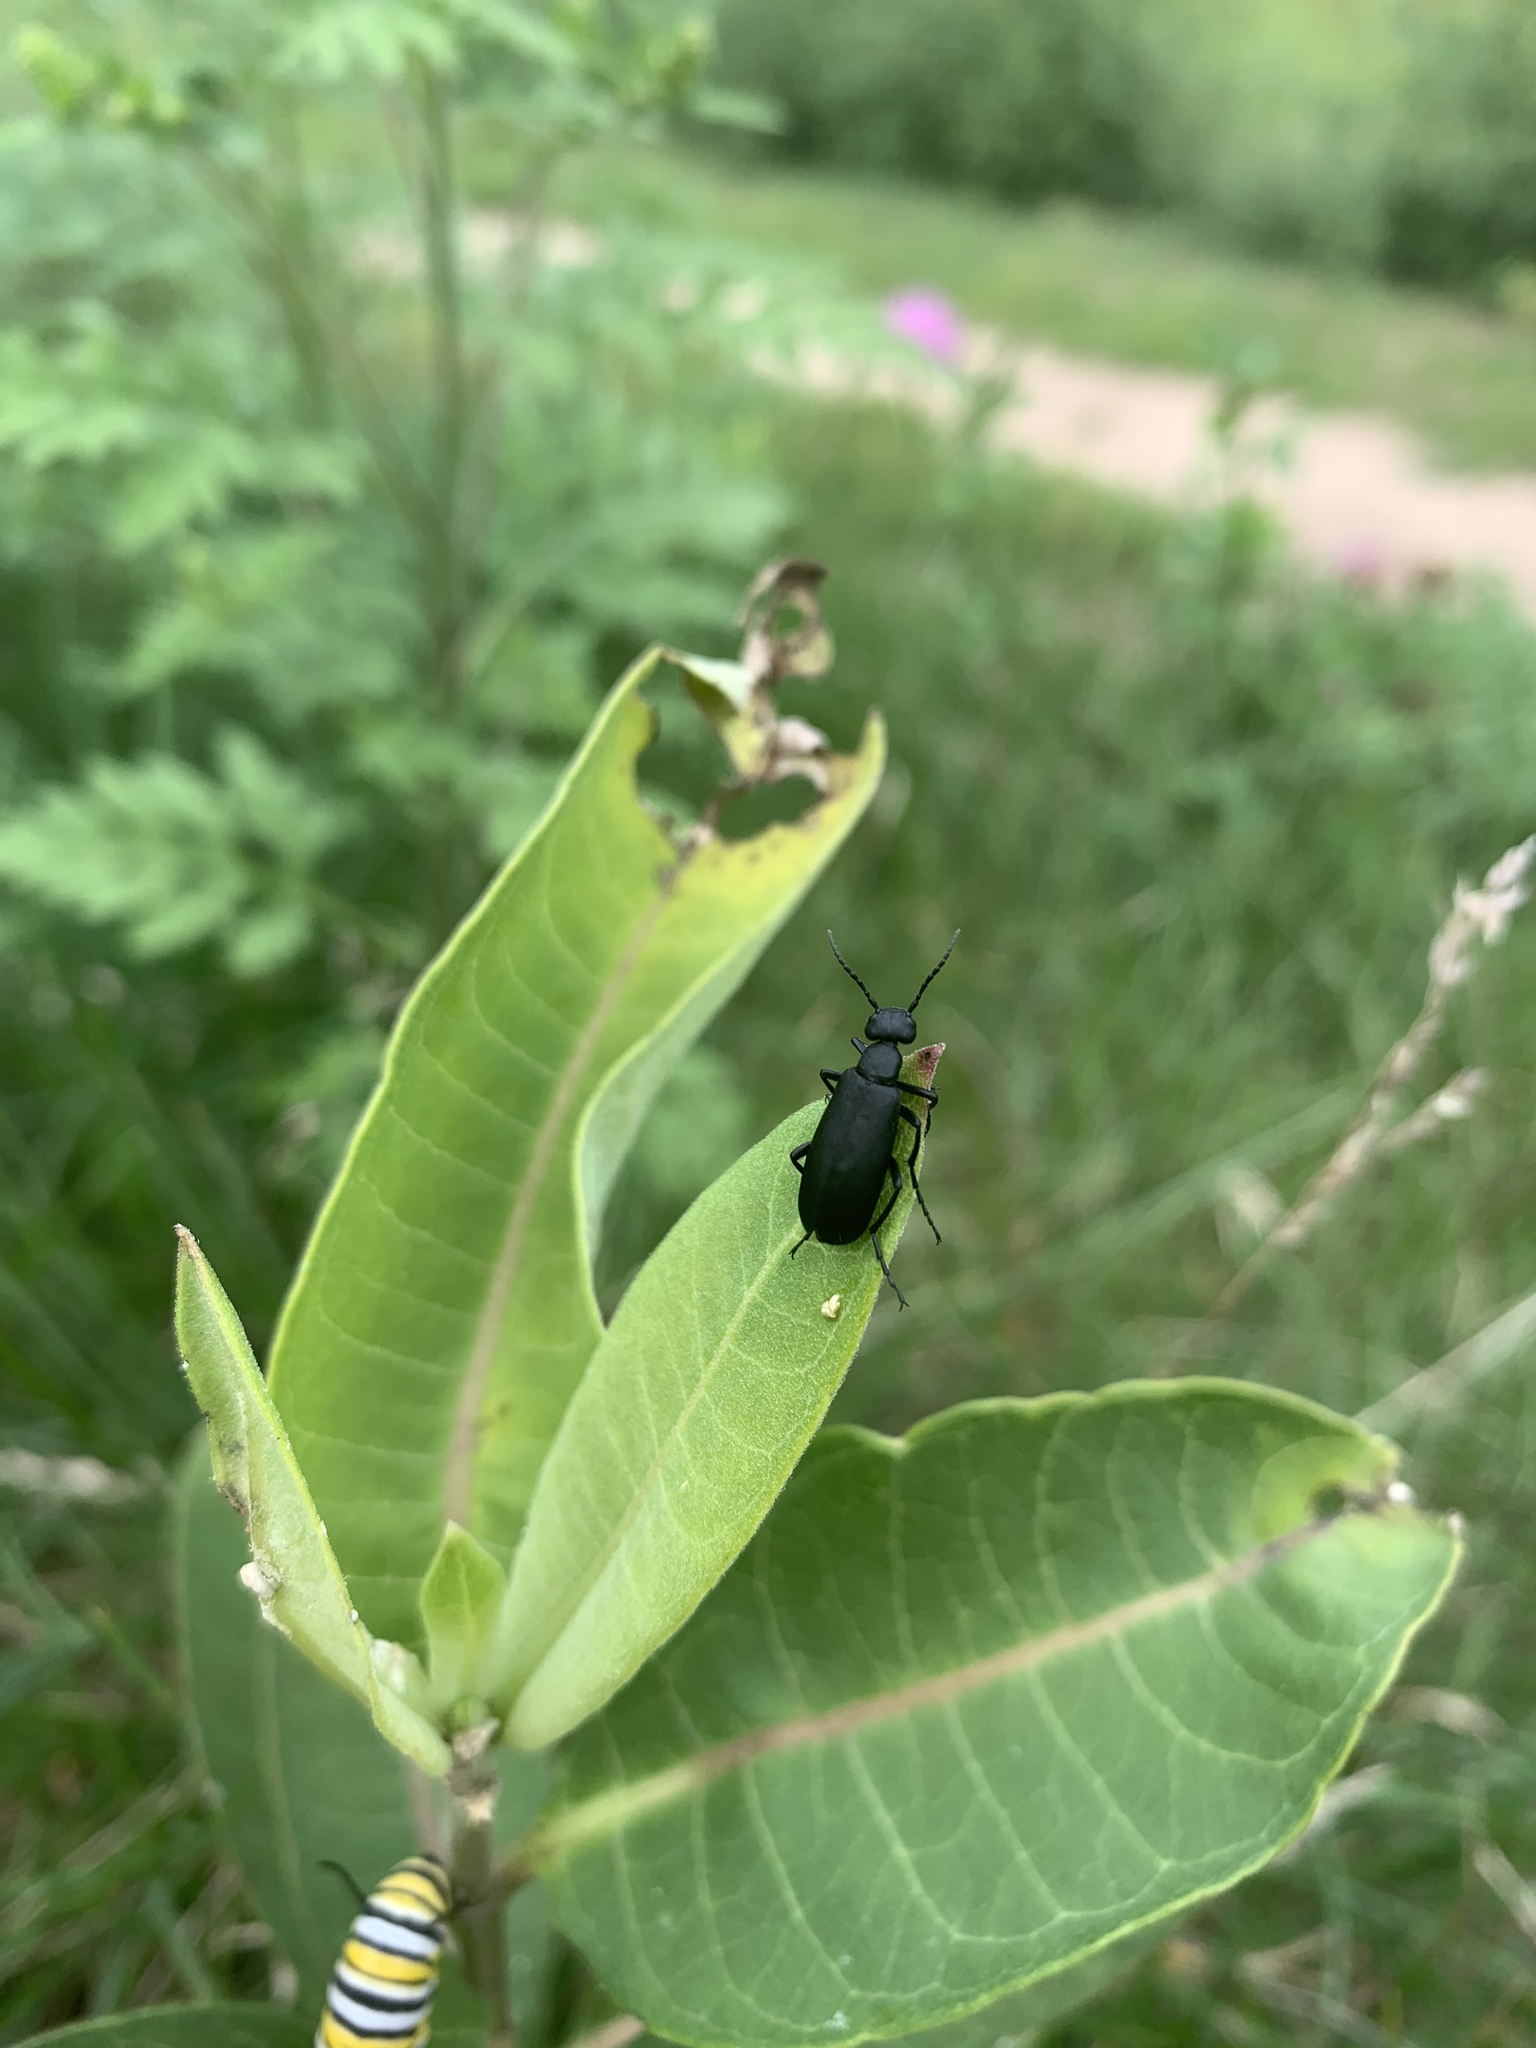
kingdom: Animalia
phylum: Arthropoda
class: Insecta
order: Coleoptera
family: Meloidae
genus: Epicauta
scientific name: Epicauta pensylvanica
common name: Black blister beetle
